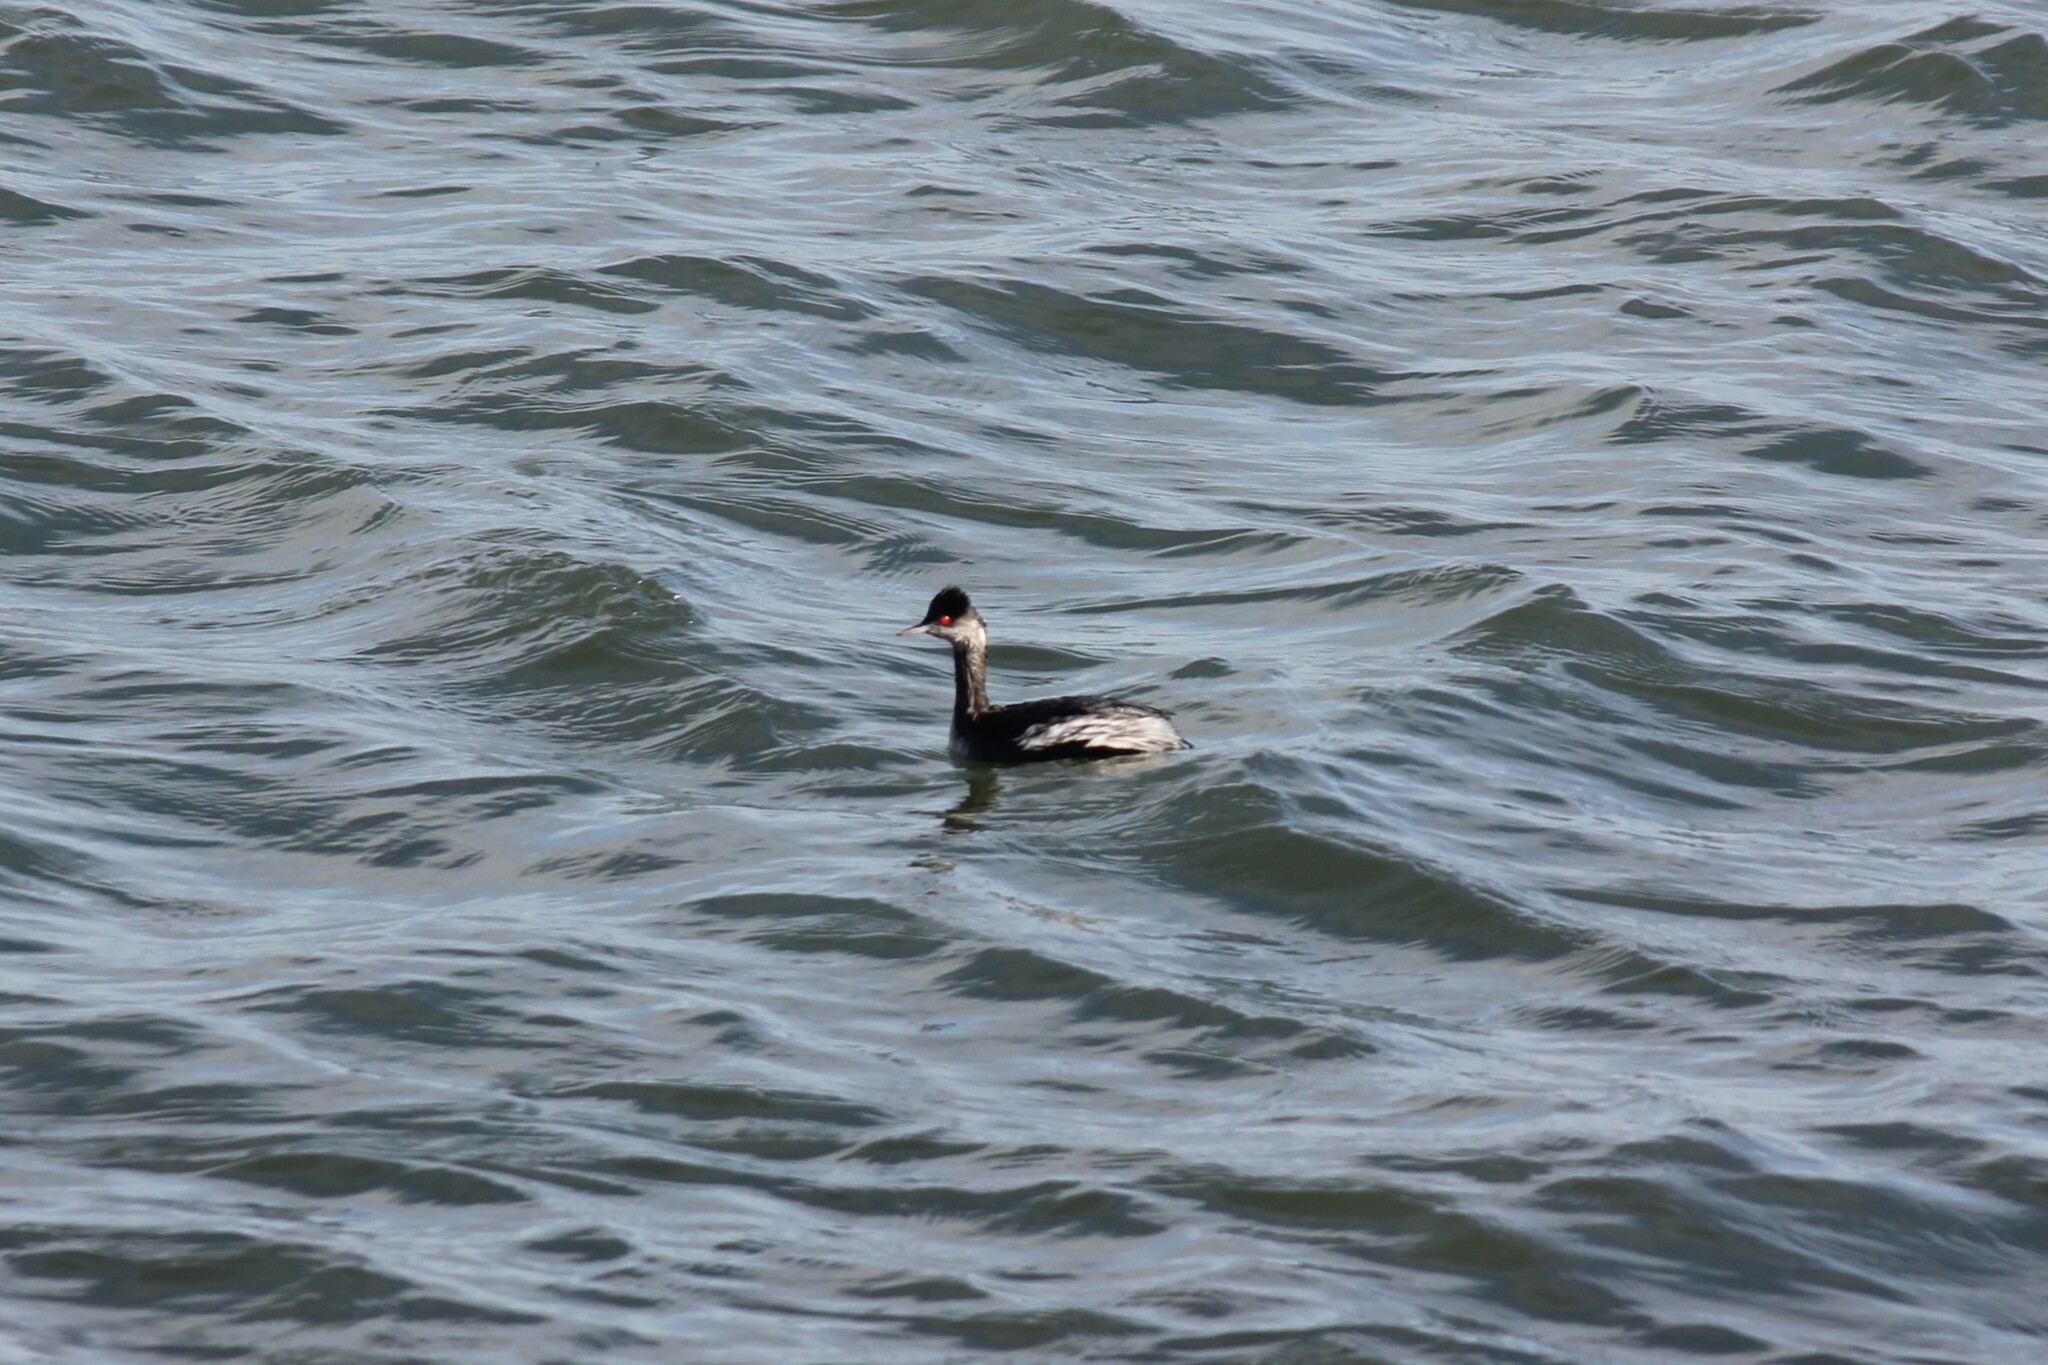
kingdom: Animalia
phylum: Chordata
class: Aves
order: Podicipediformes
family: Podicipedidae
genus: Podiceps
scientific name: Podiceps nigricollis
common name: Black-necked grebe
